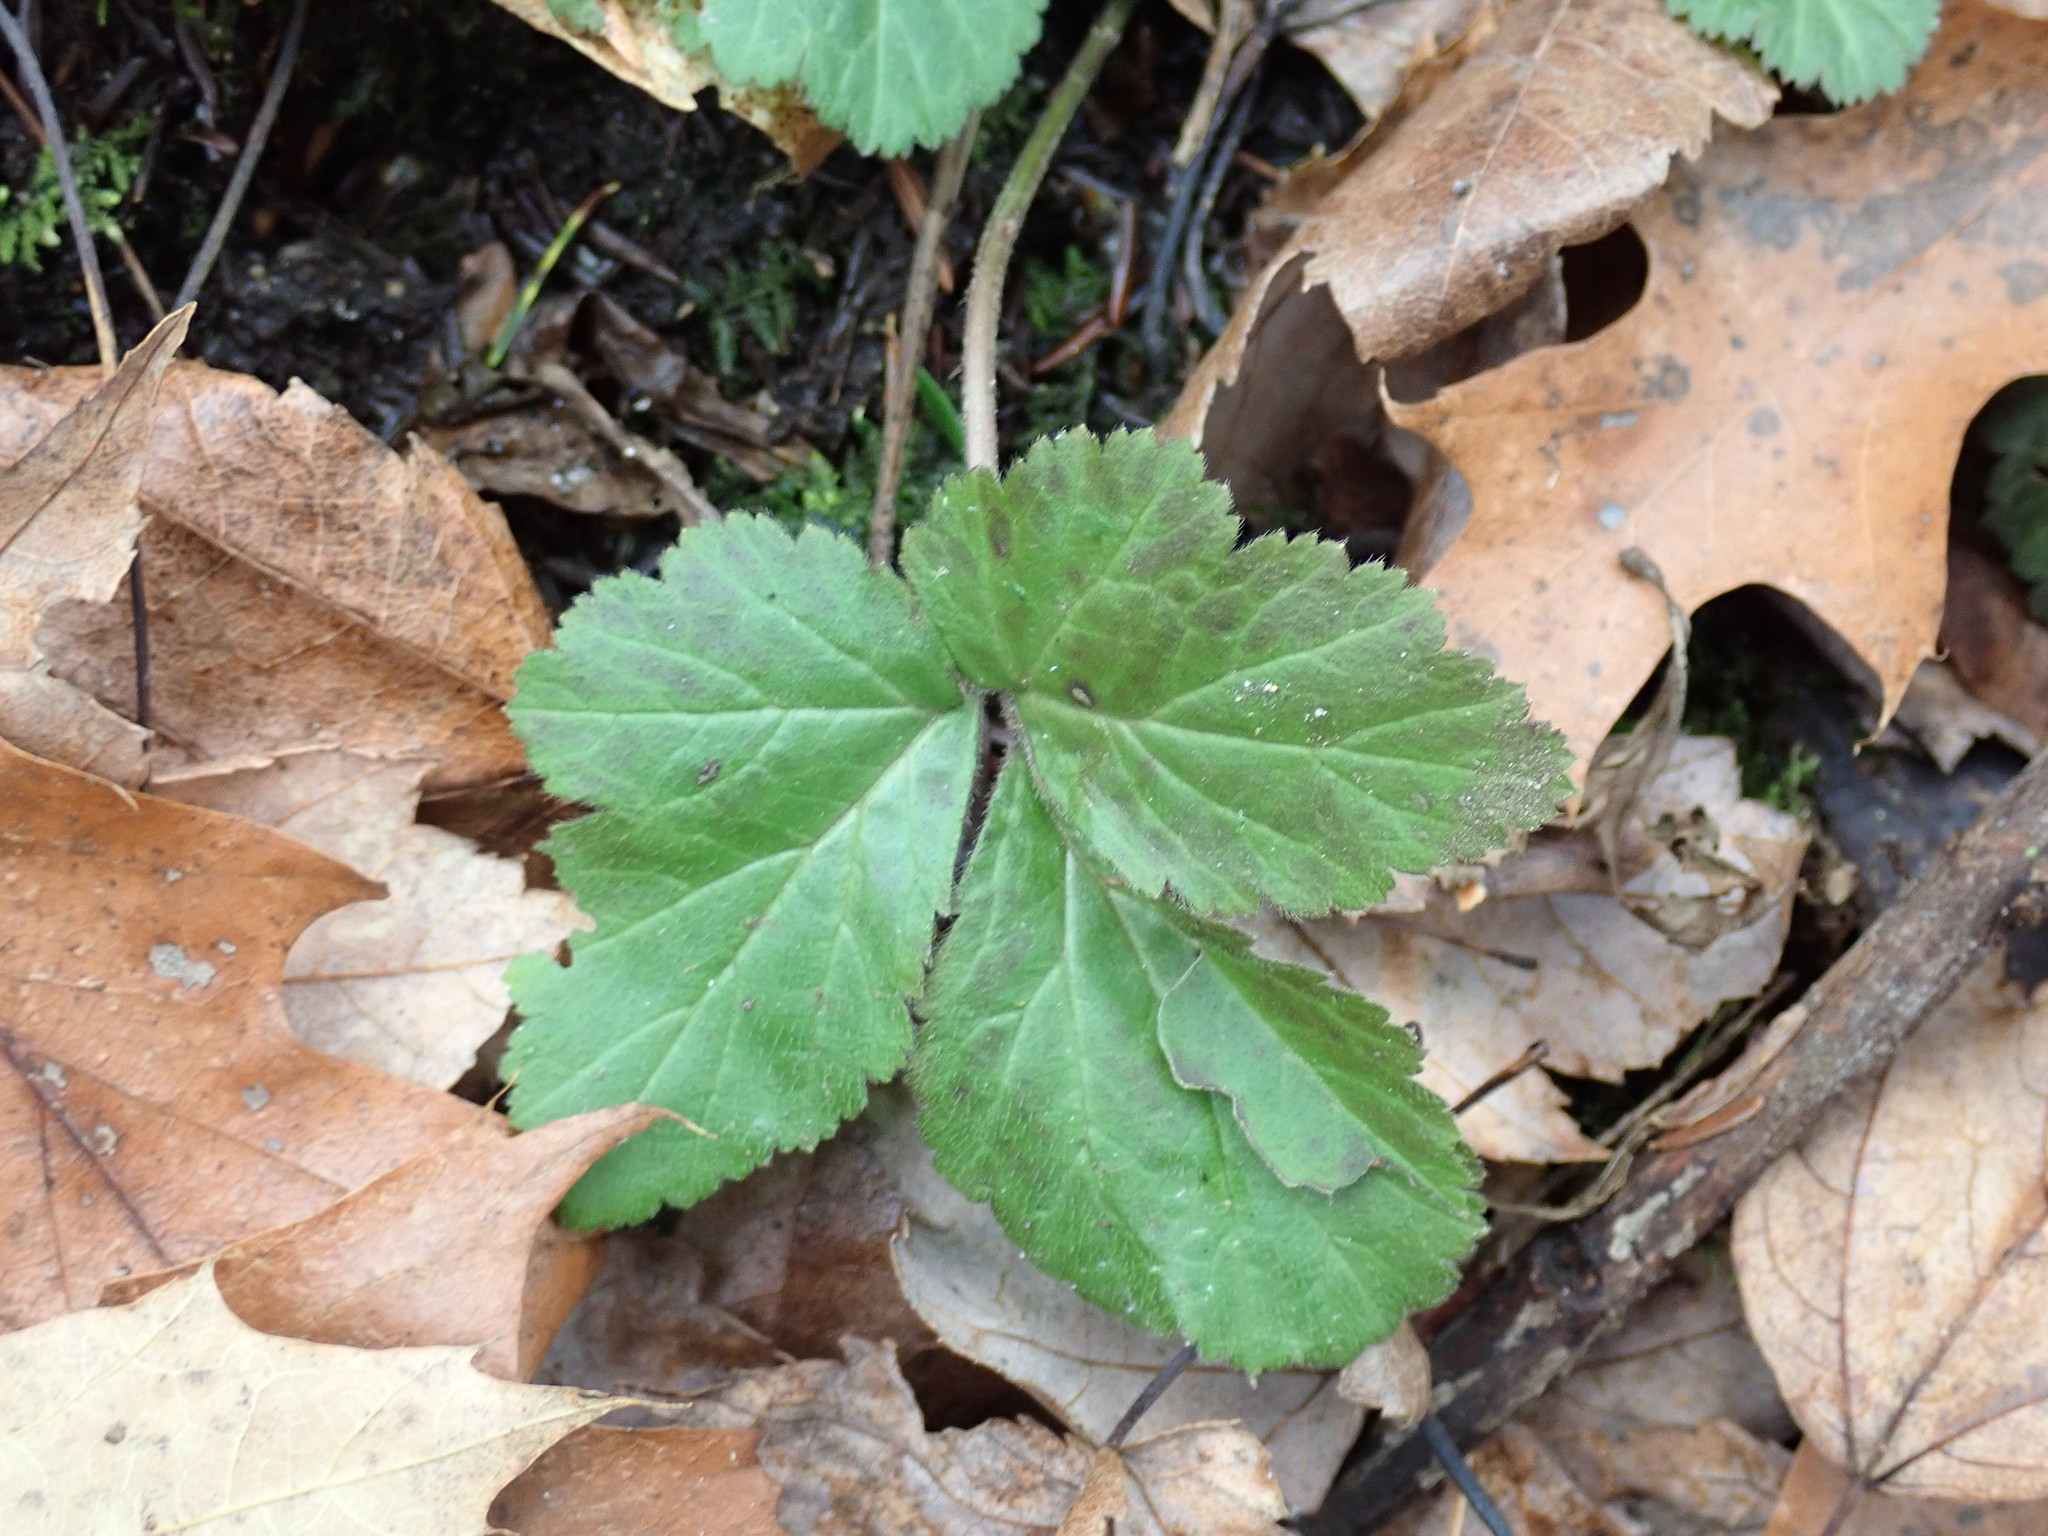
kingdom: Plantae
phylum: Tracheophyta
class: Magnoliopsida
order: Rosales
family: Rosaceae
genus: Geum
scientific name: Geum
